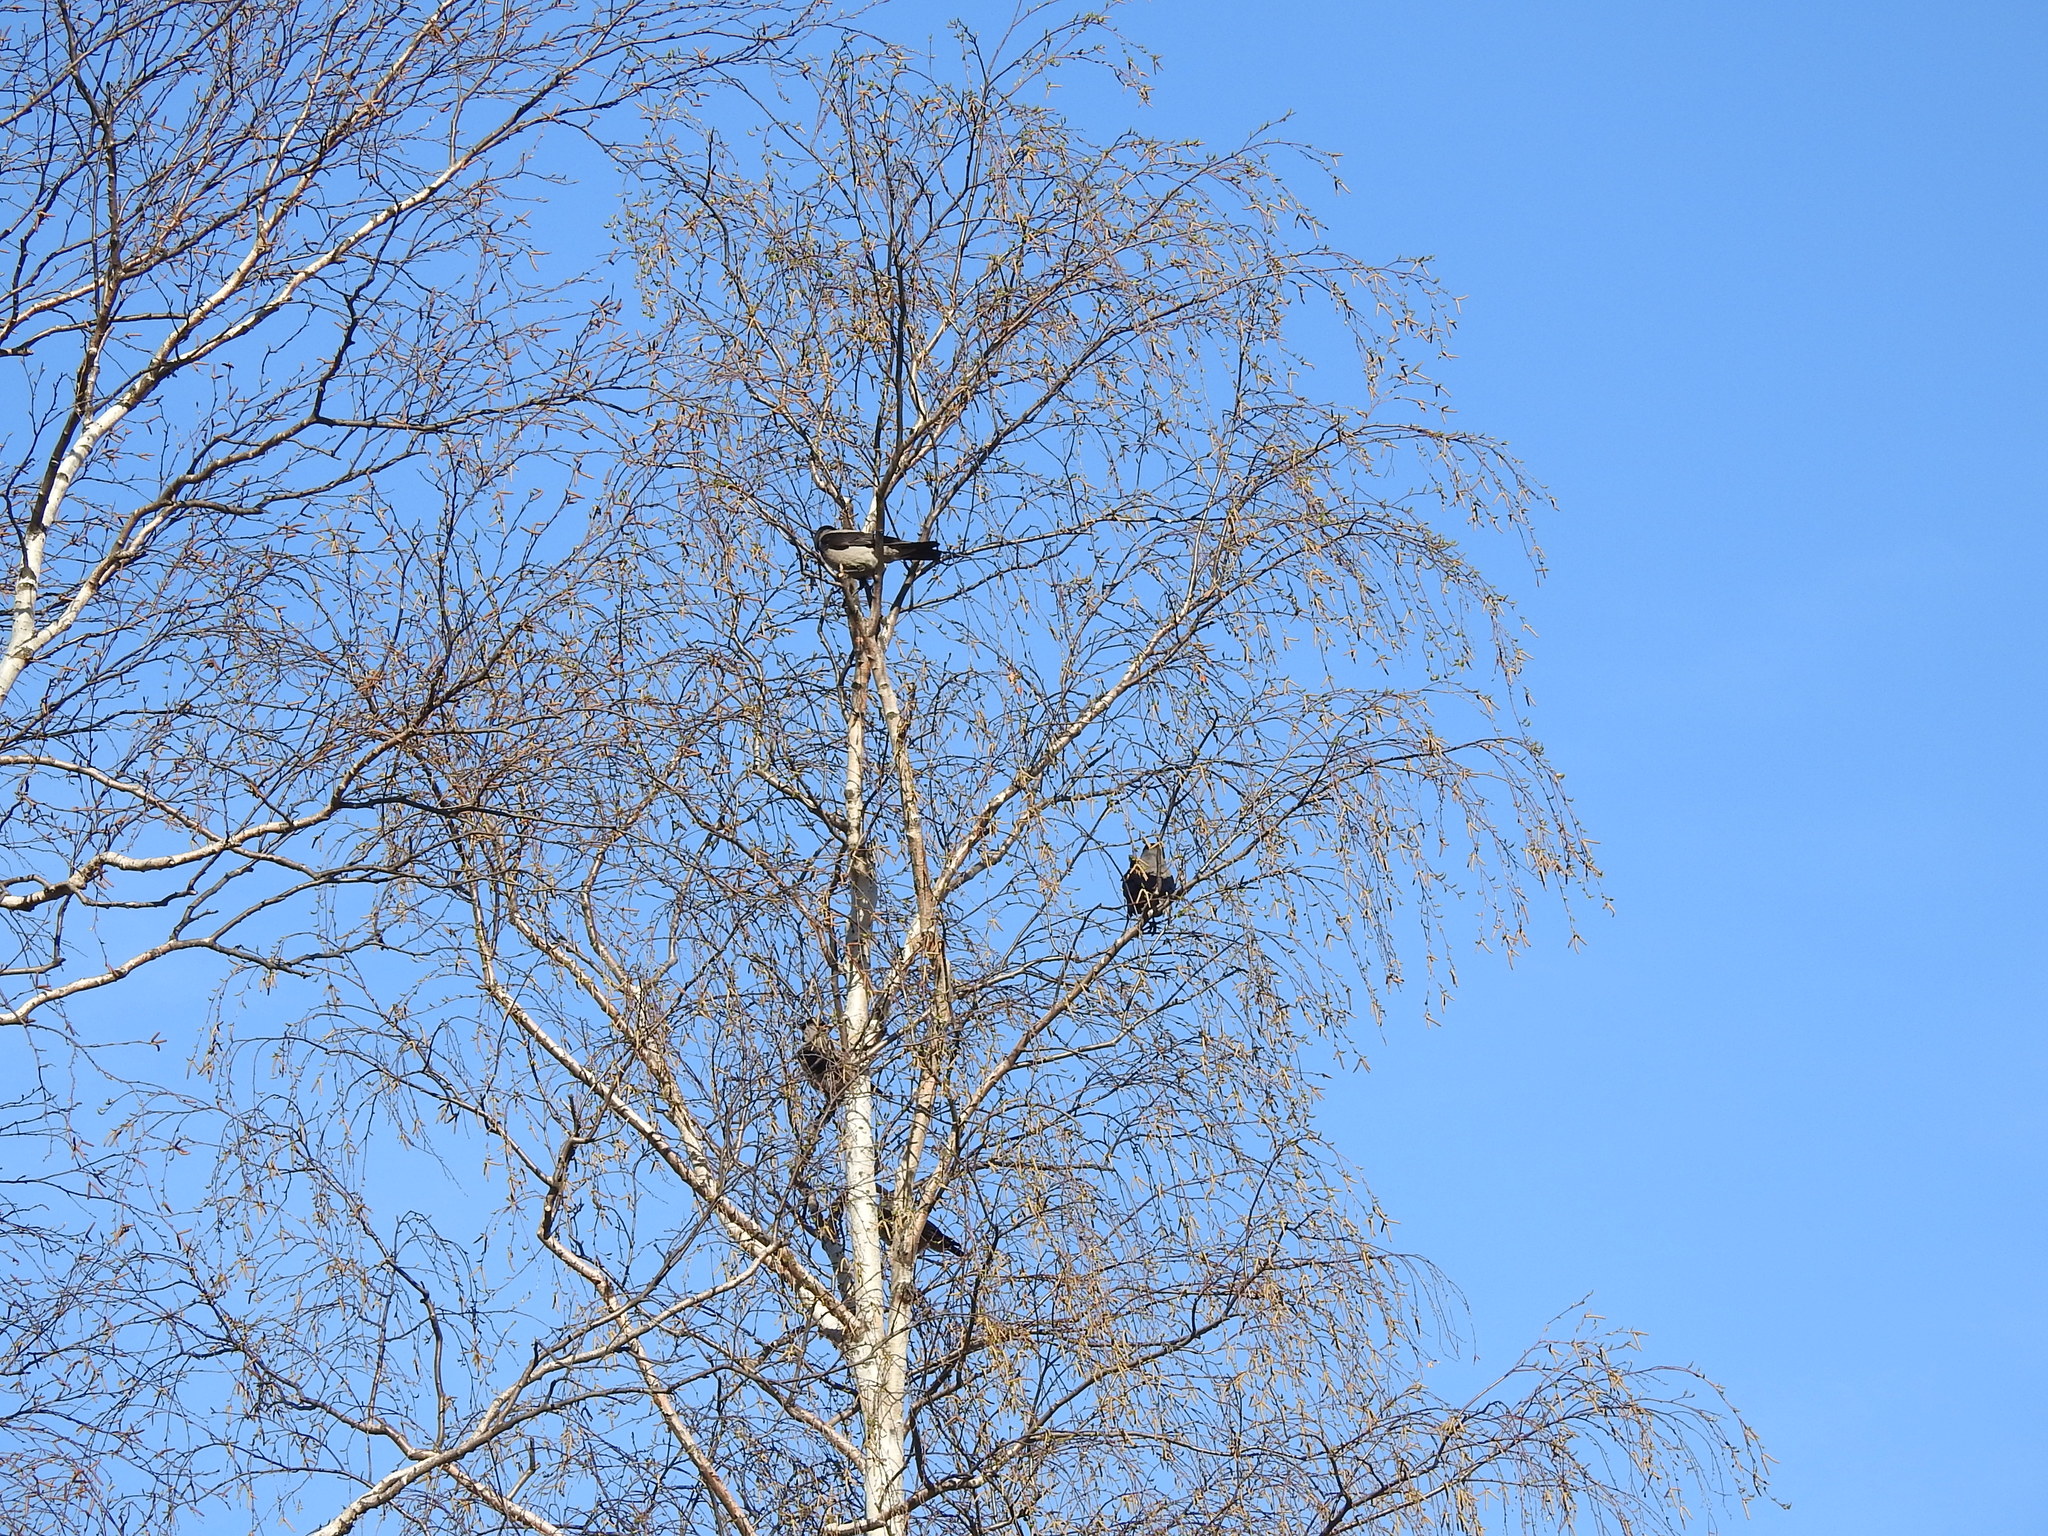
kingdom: Animalia
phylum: Chordata
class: Aves
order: Passeriformes
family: Corvidae
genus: Corvus
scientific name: Corvus cornix
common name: Hooded crow
